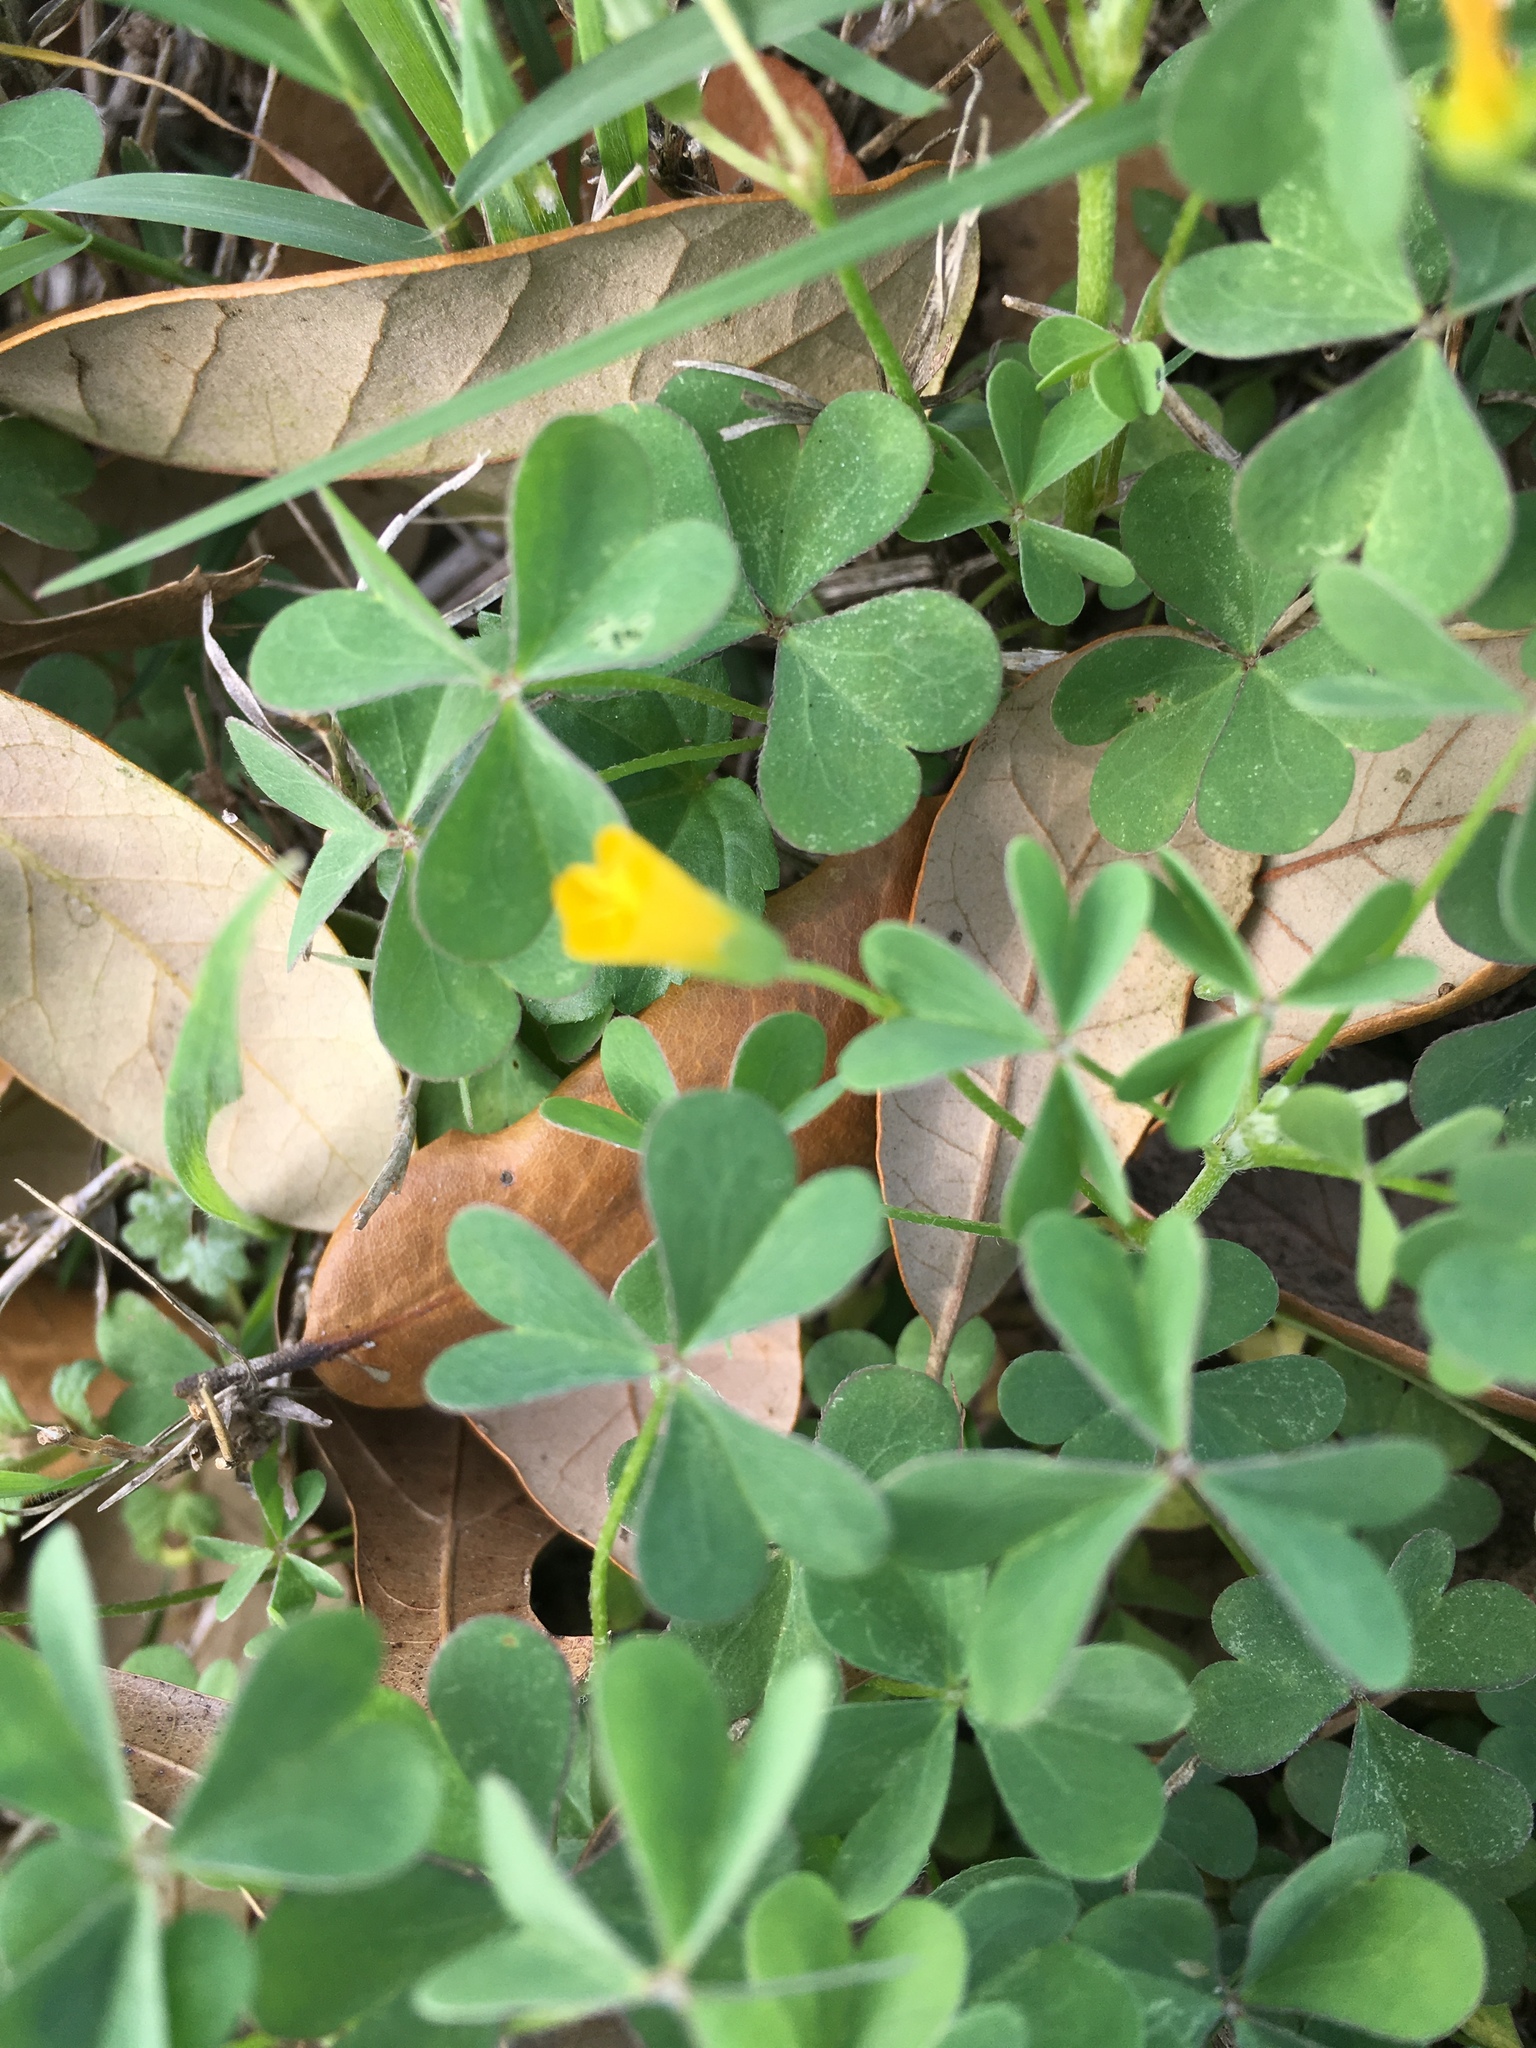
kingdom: Plantae
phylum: Tracheophyta
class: Magnoliopsida
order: Oxalidales
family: Oxalidaceae
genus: Oxalis
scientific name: Oxalis dillenii
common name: Sussex yellow-sorrel
